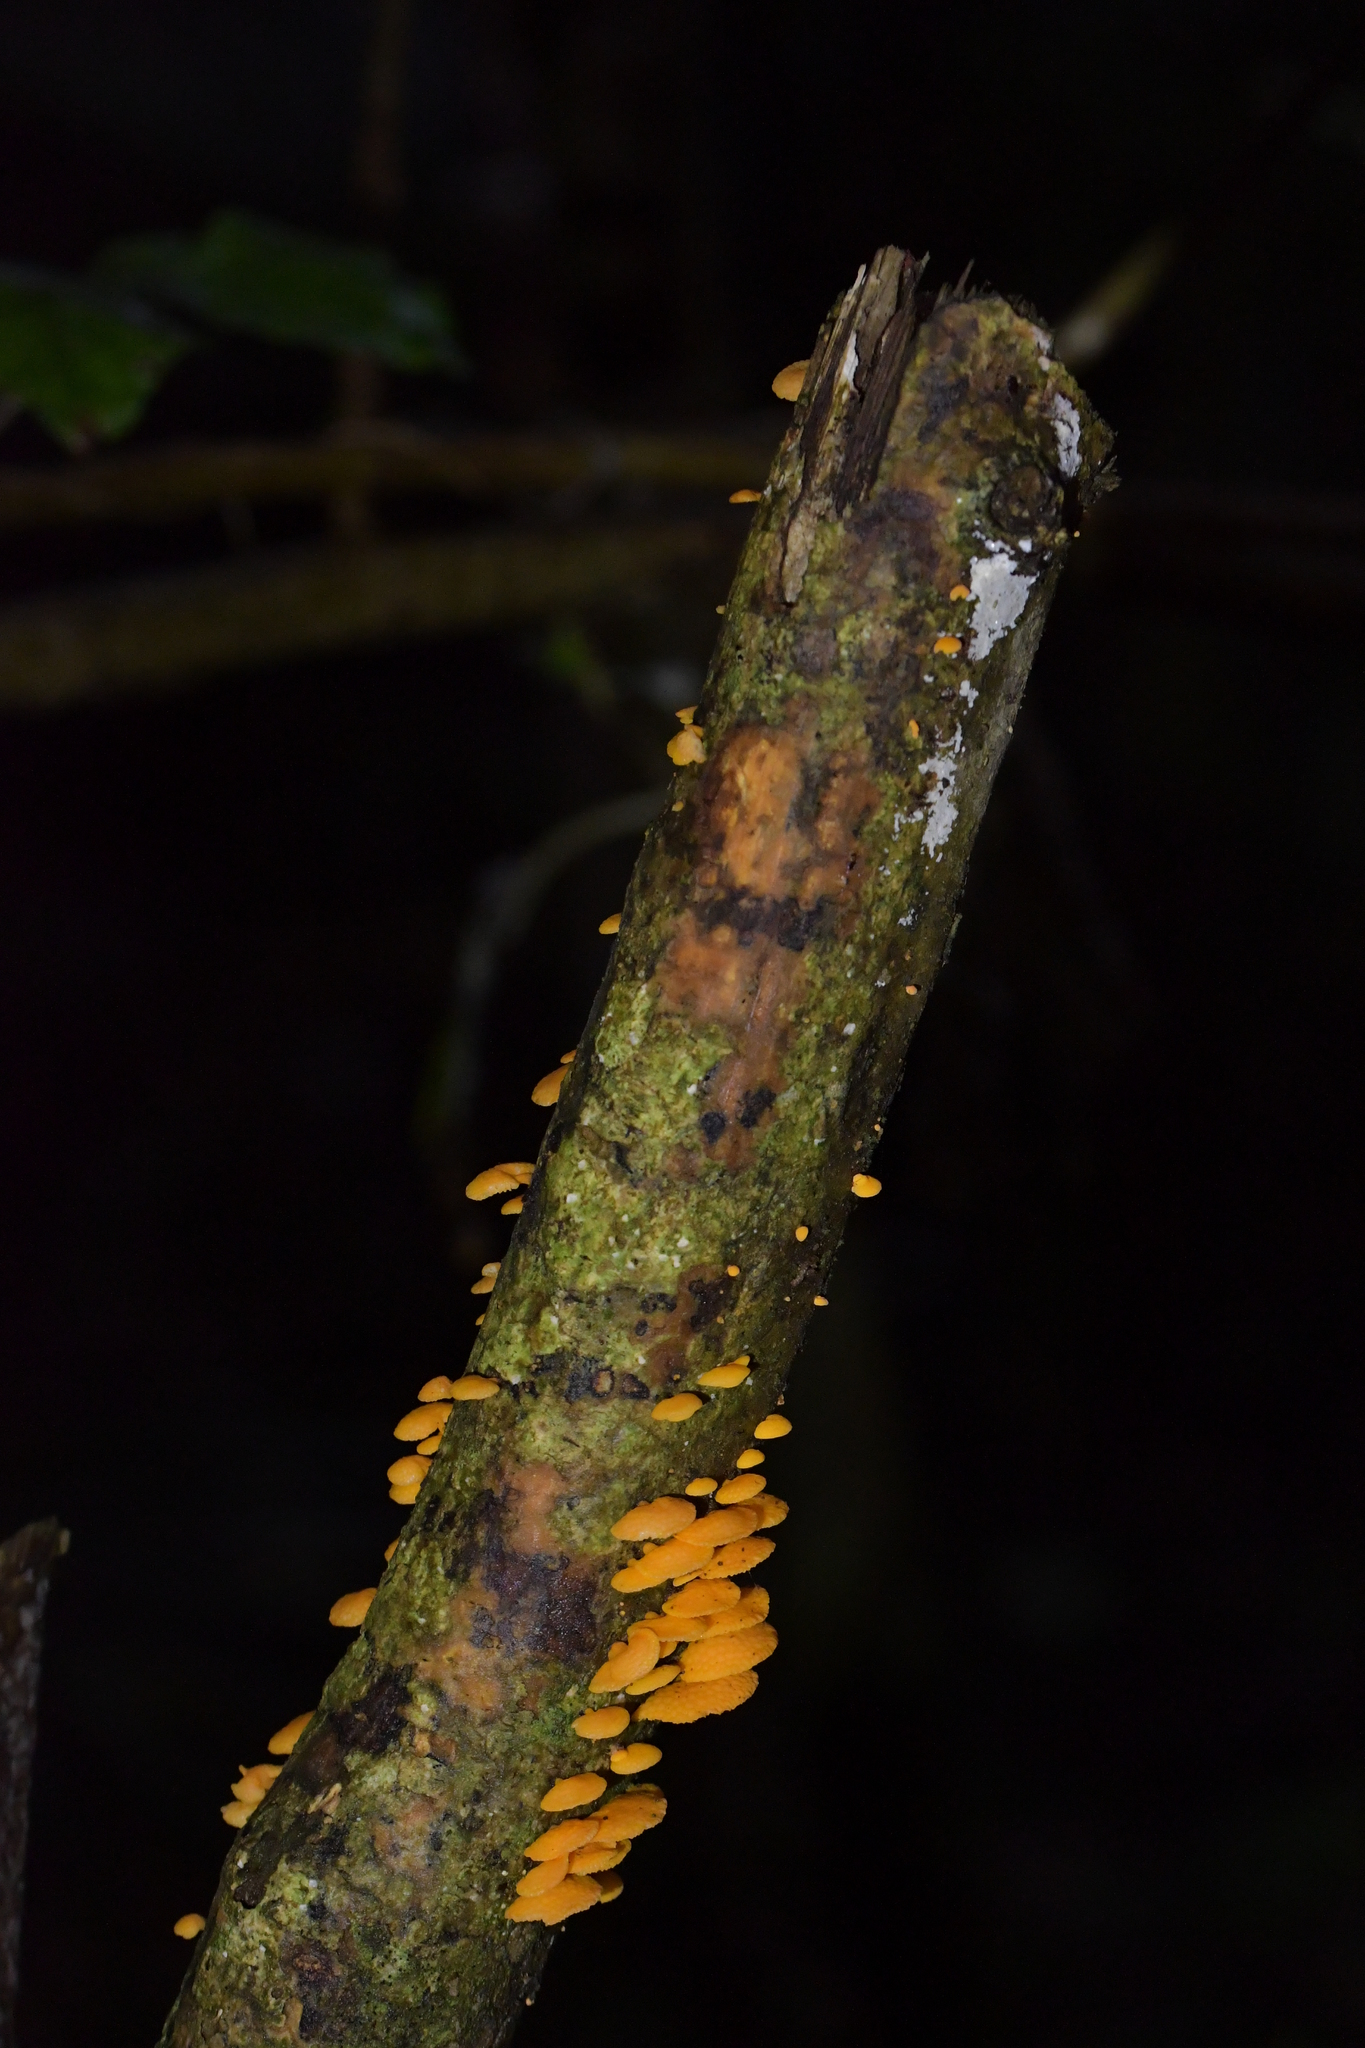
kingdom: Fungi
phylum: Basidiomycota
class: Agaricomycetes
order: Agaricales
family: Mycenaceae
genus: Favolaschia
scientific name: Favolaschia claudopus
